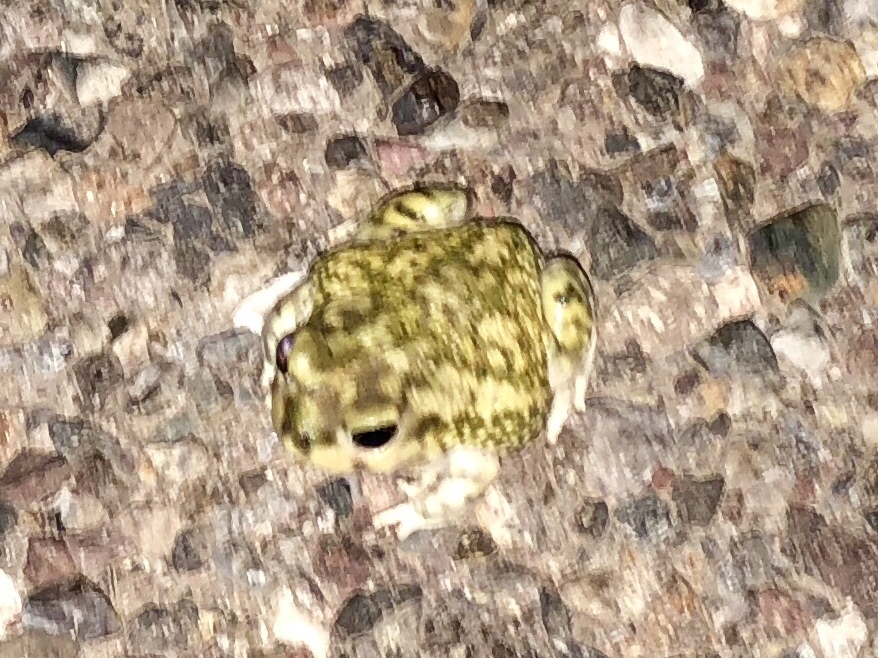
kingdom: Animalia
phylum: Chordata
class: Amphibia
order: Anura
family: Scaphiopodidae
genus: Scaphiopus
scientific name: Scaphiopus couchii
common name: Couch's spadefoot toad
